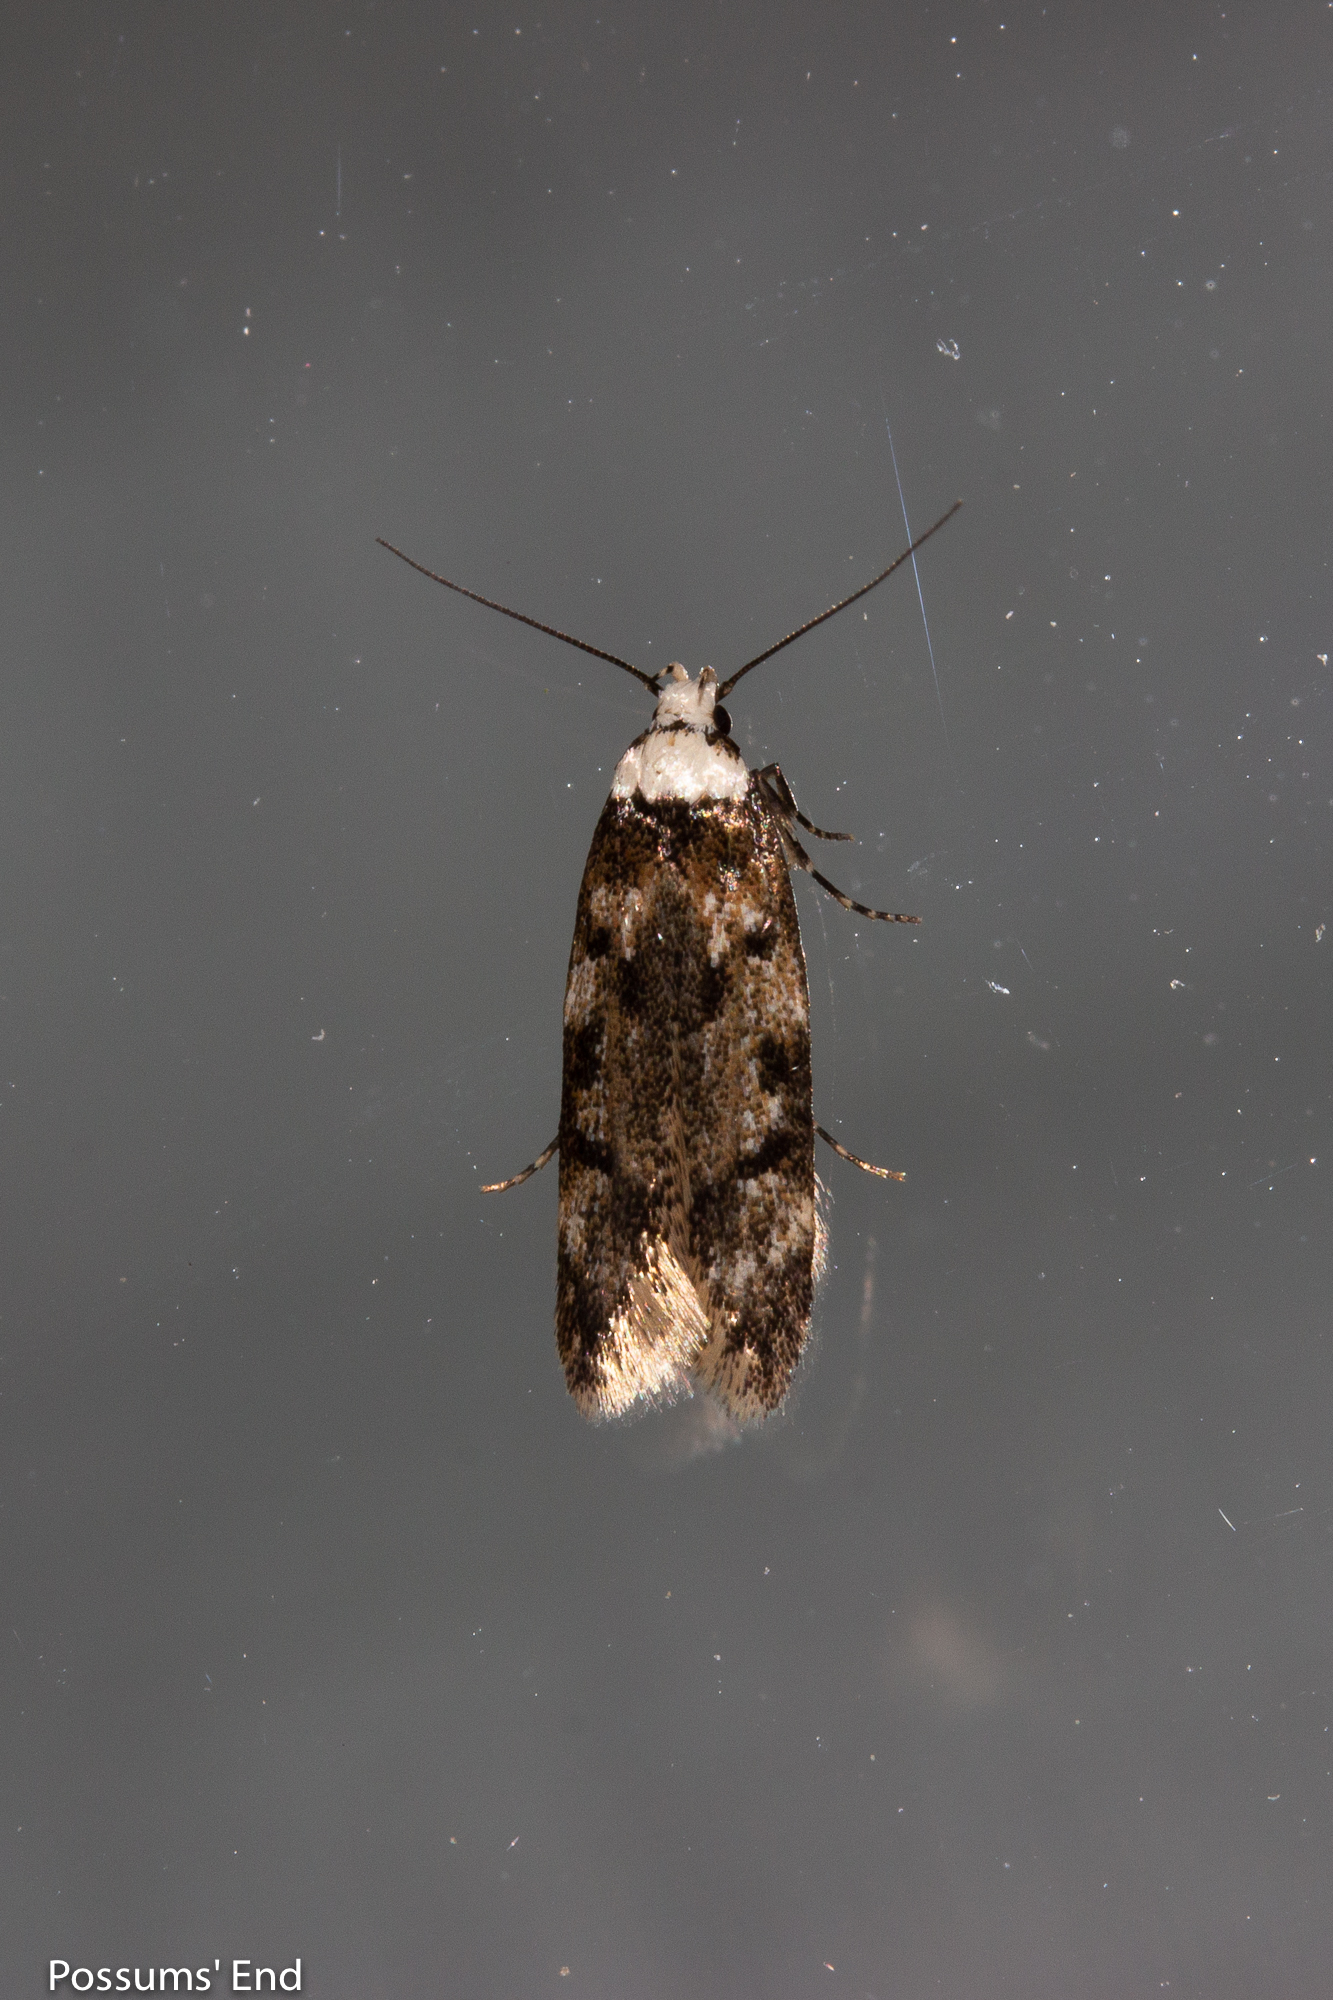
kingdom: Animalia
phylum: Arthropoda
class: Insecta
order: Lepidoptera
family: Oecophoridae
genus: Endrosis
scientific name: Endrosis sarcitrella
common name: White-shouldered house moth
